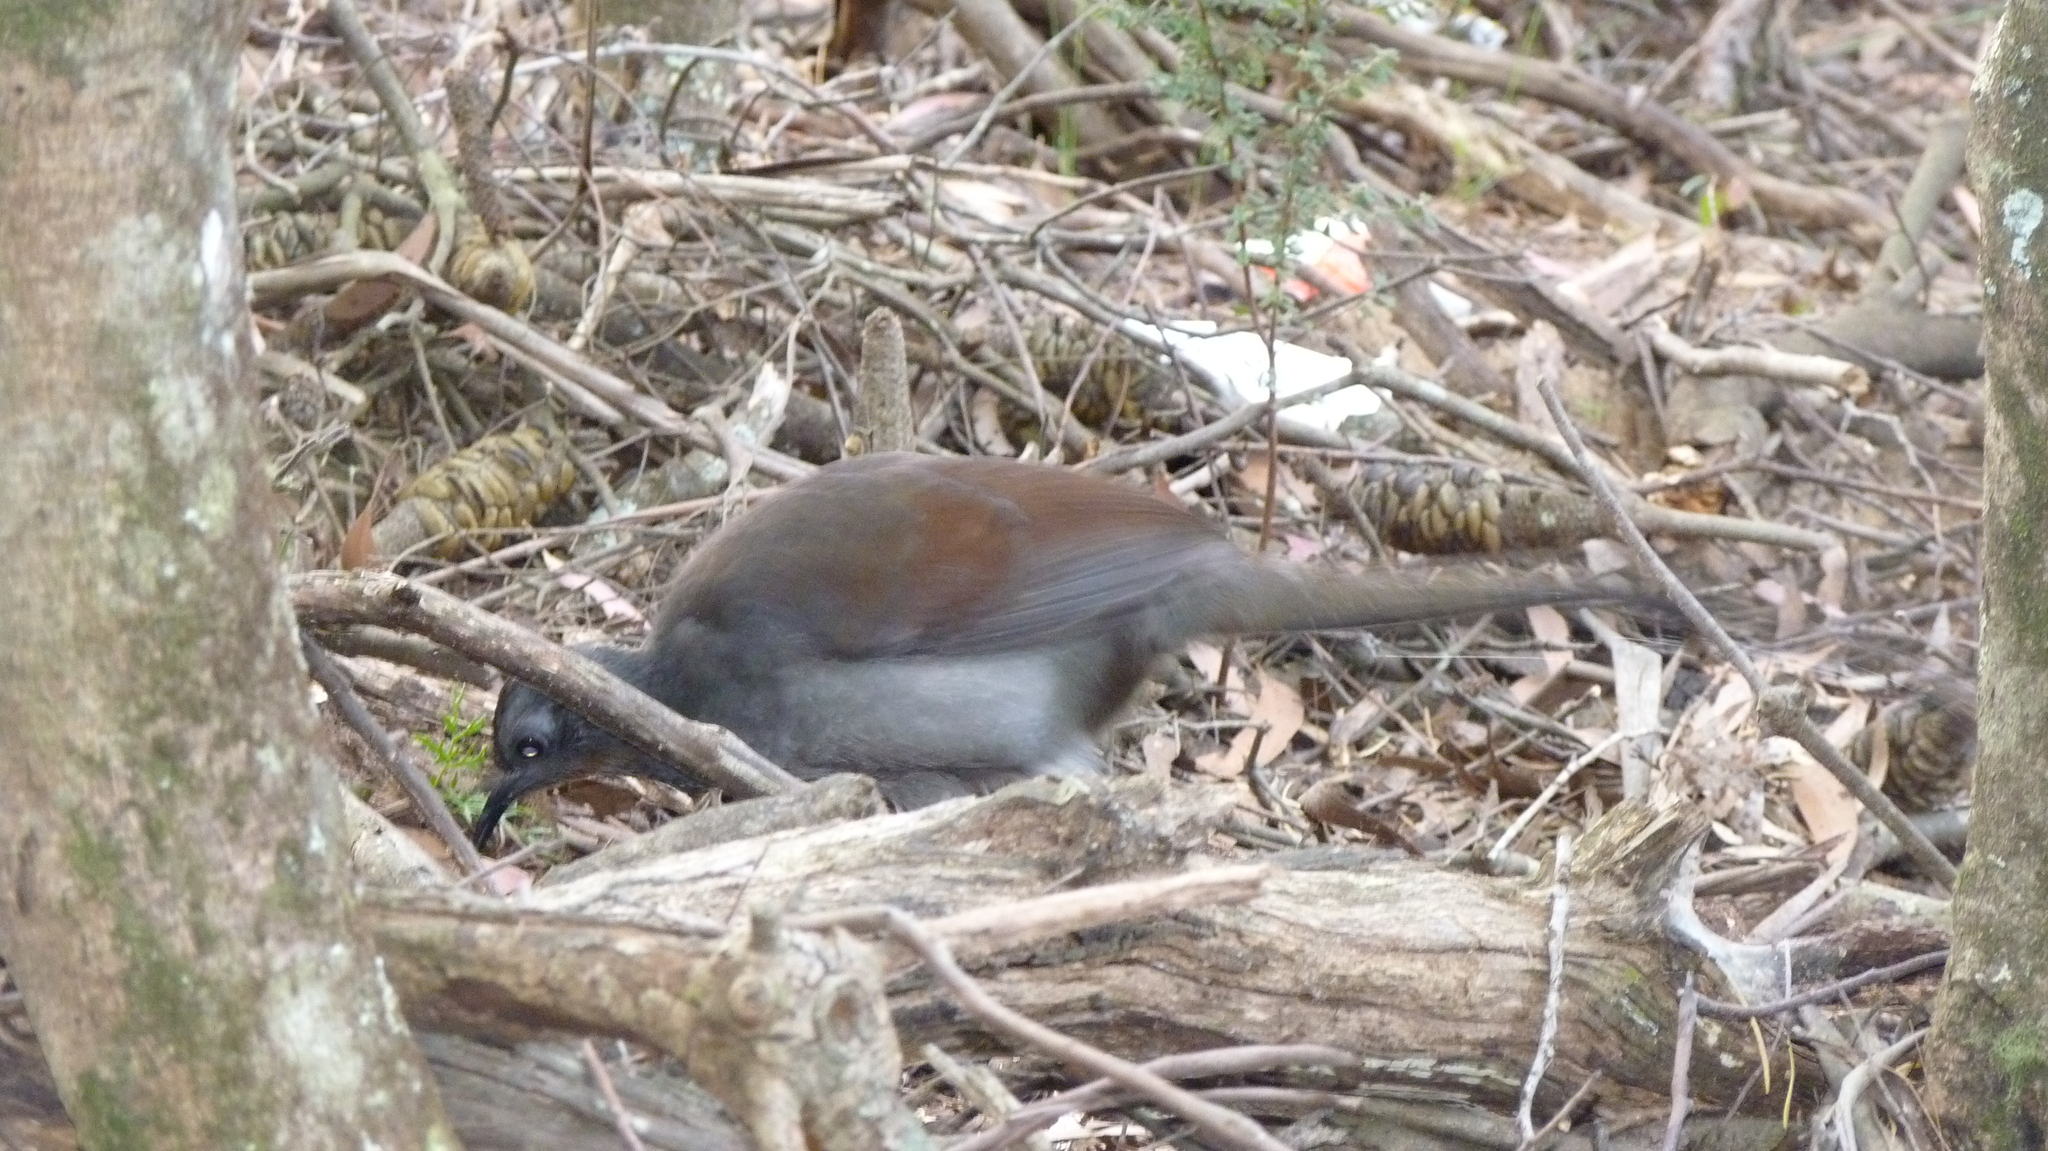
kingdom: Animalia
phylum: Chordata
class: Aves
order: Passeriformes
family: Menuridae
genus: Menura
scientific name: Menura novaehollandiae
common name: Superb lyrebird
